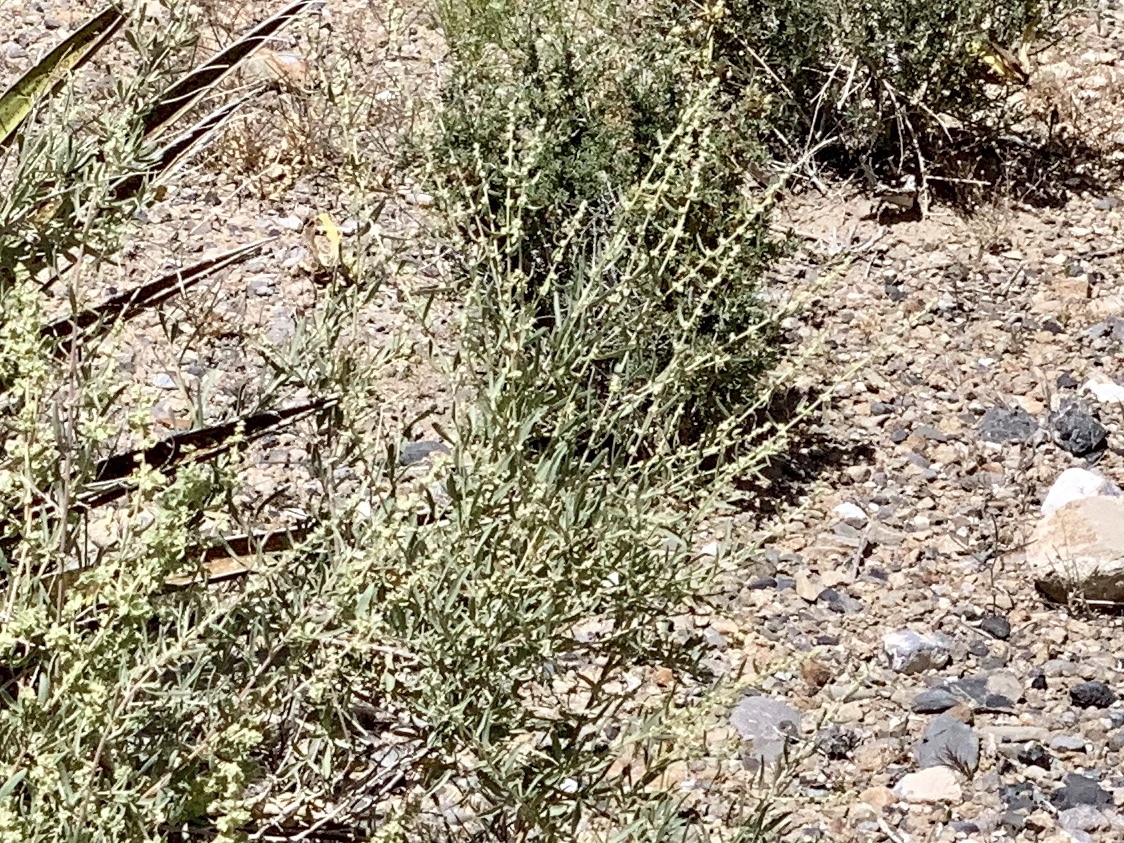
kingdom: Plantae
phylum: Tracheophyta
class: Magnoliopsida
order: Caryophyllales
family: Amaranthaceae
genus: Atriplex
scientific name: Atriplex canescens
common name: Four-wing saltbush
